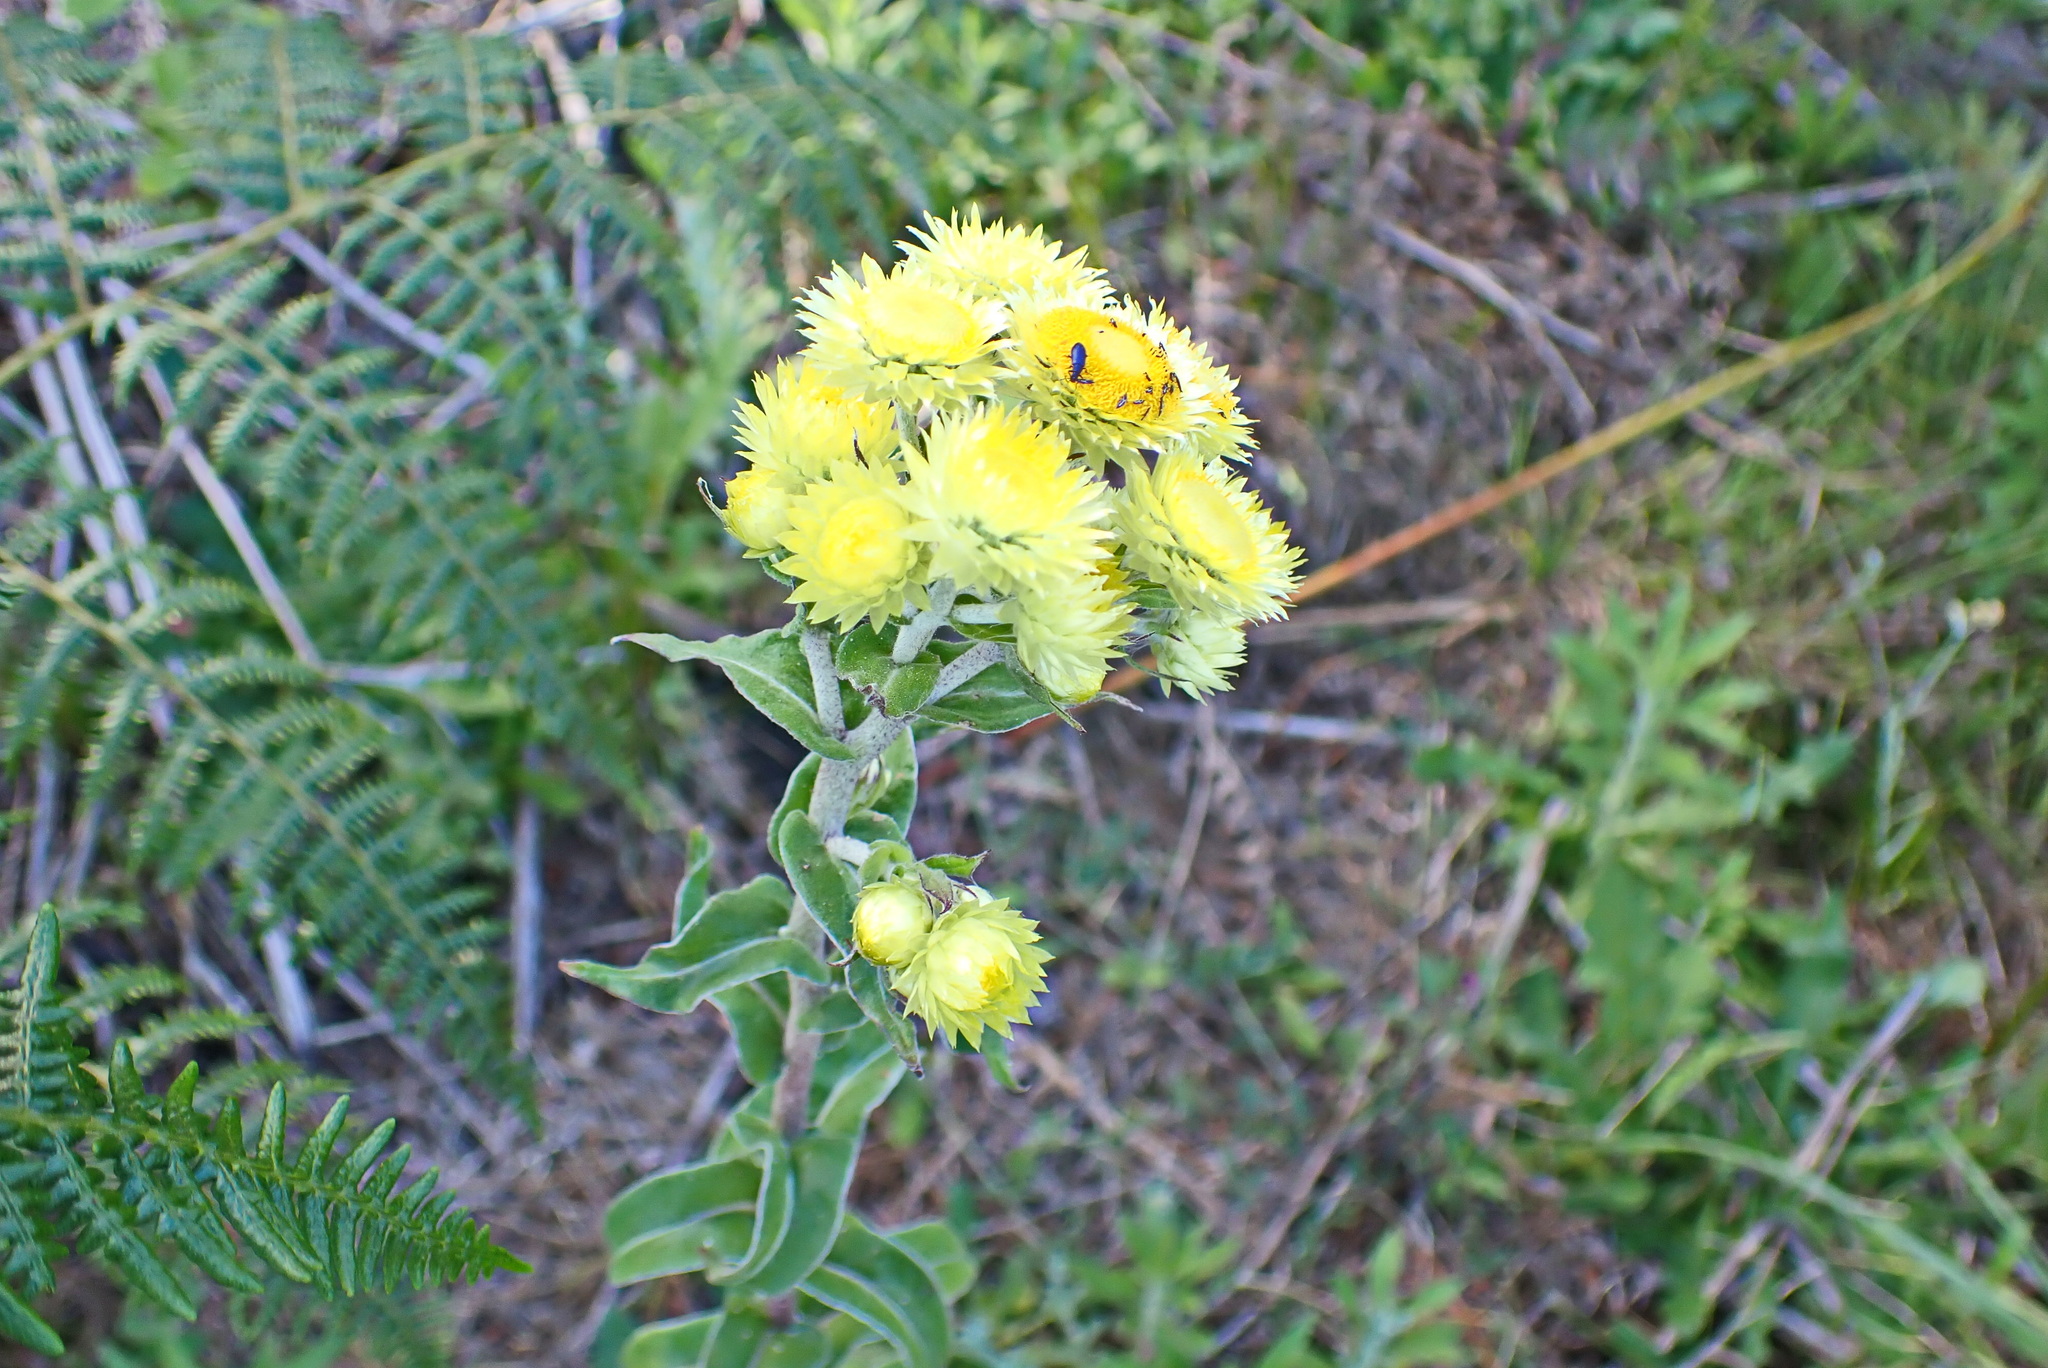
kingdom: Plantae
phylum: Tracheophyta
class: Magnoliopsida
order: Asterales
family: Asteraceae
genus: Helichrysum
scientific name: Helichrysum foetidum
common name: Stinking everlasting
